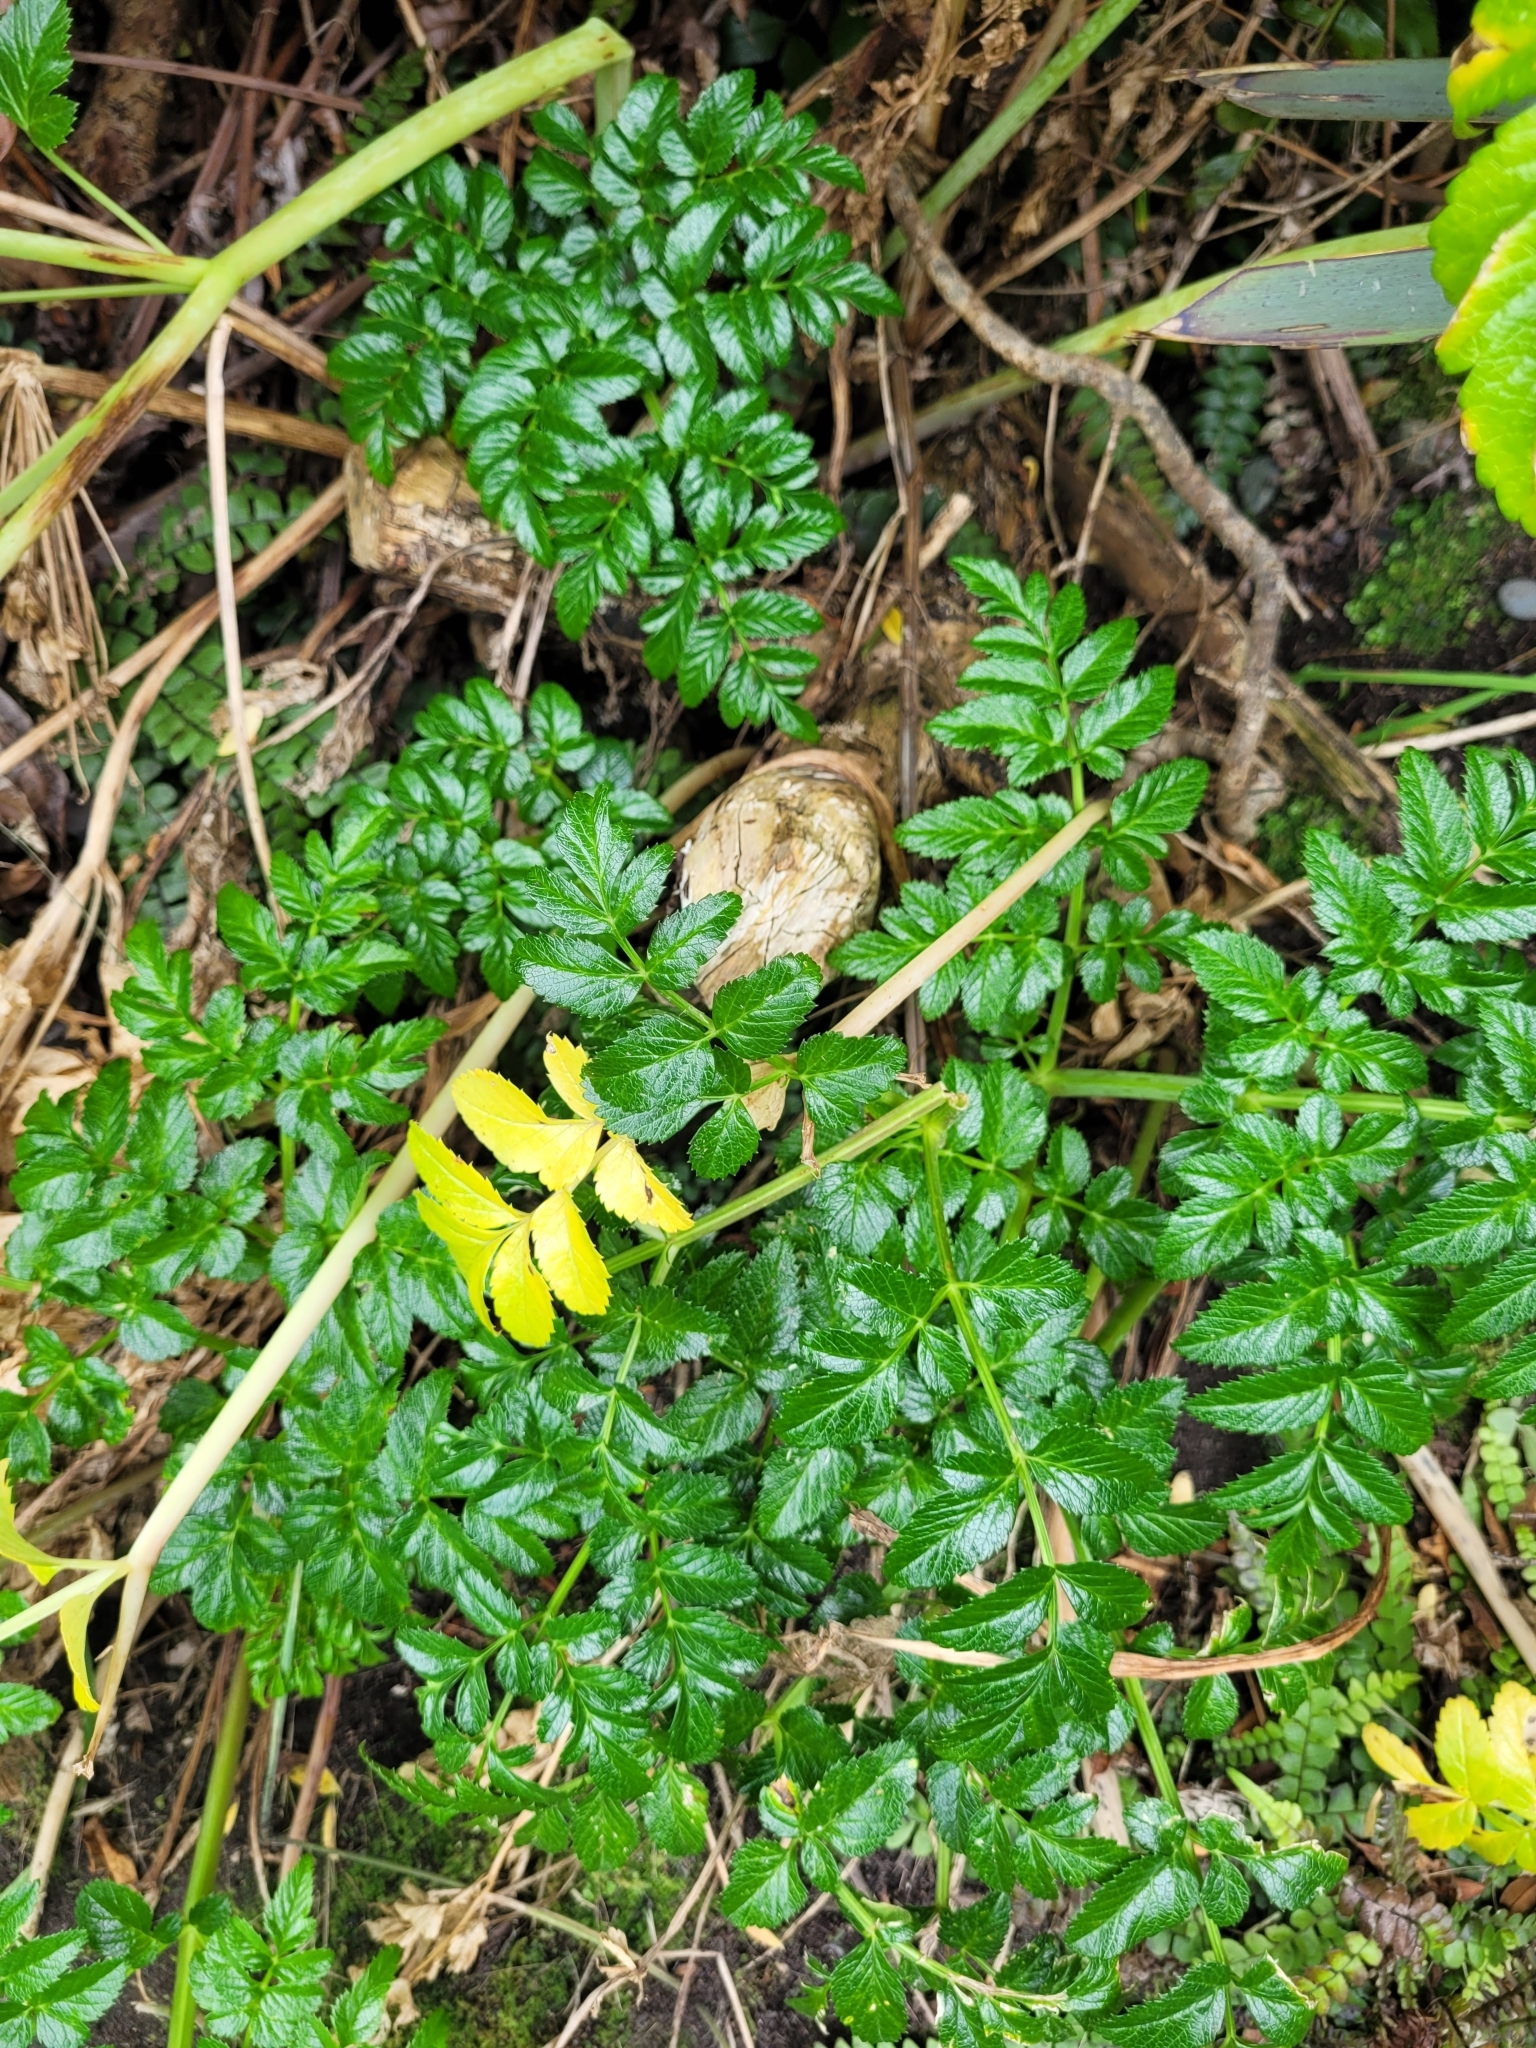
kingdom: Plantae
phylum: Tracheophyta
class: Magnoliopsida
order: Apiales
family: Apiaceae
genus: Angelica
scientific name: Angelica pachycarpa
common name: Portuguese angelica
